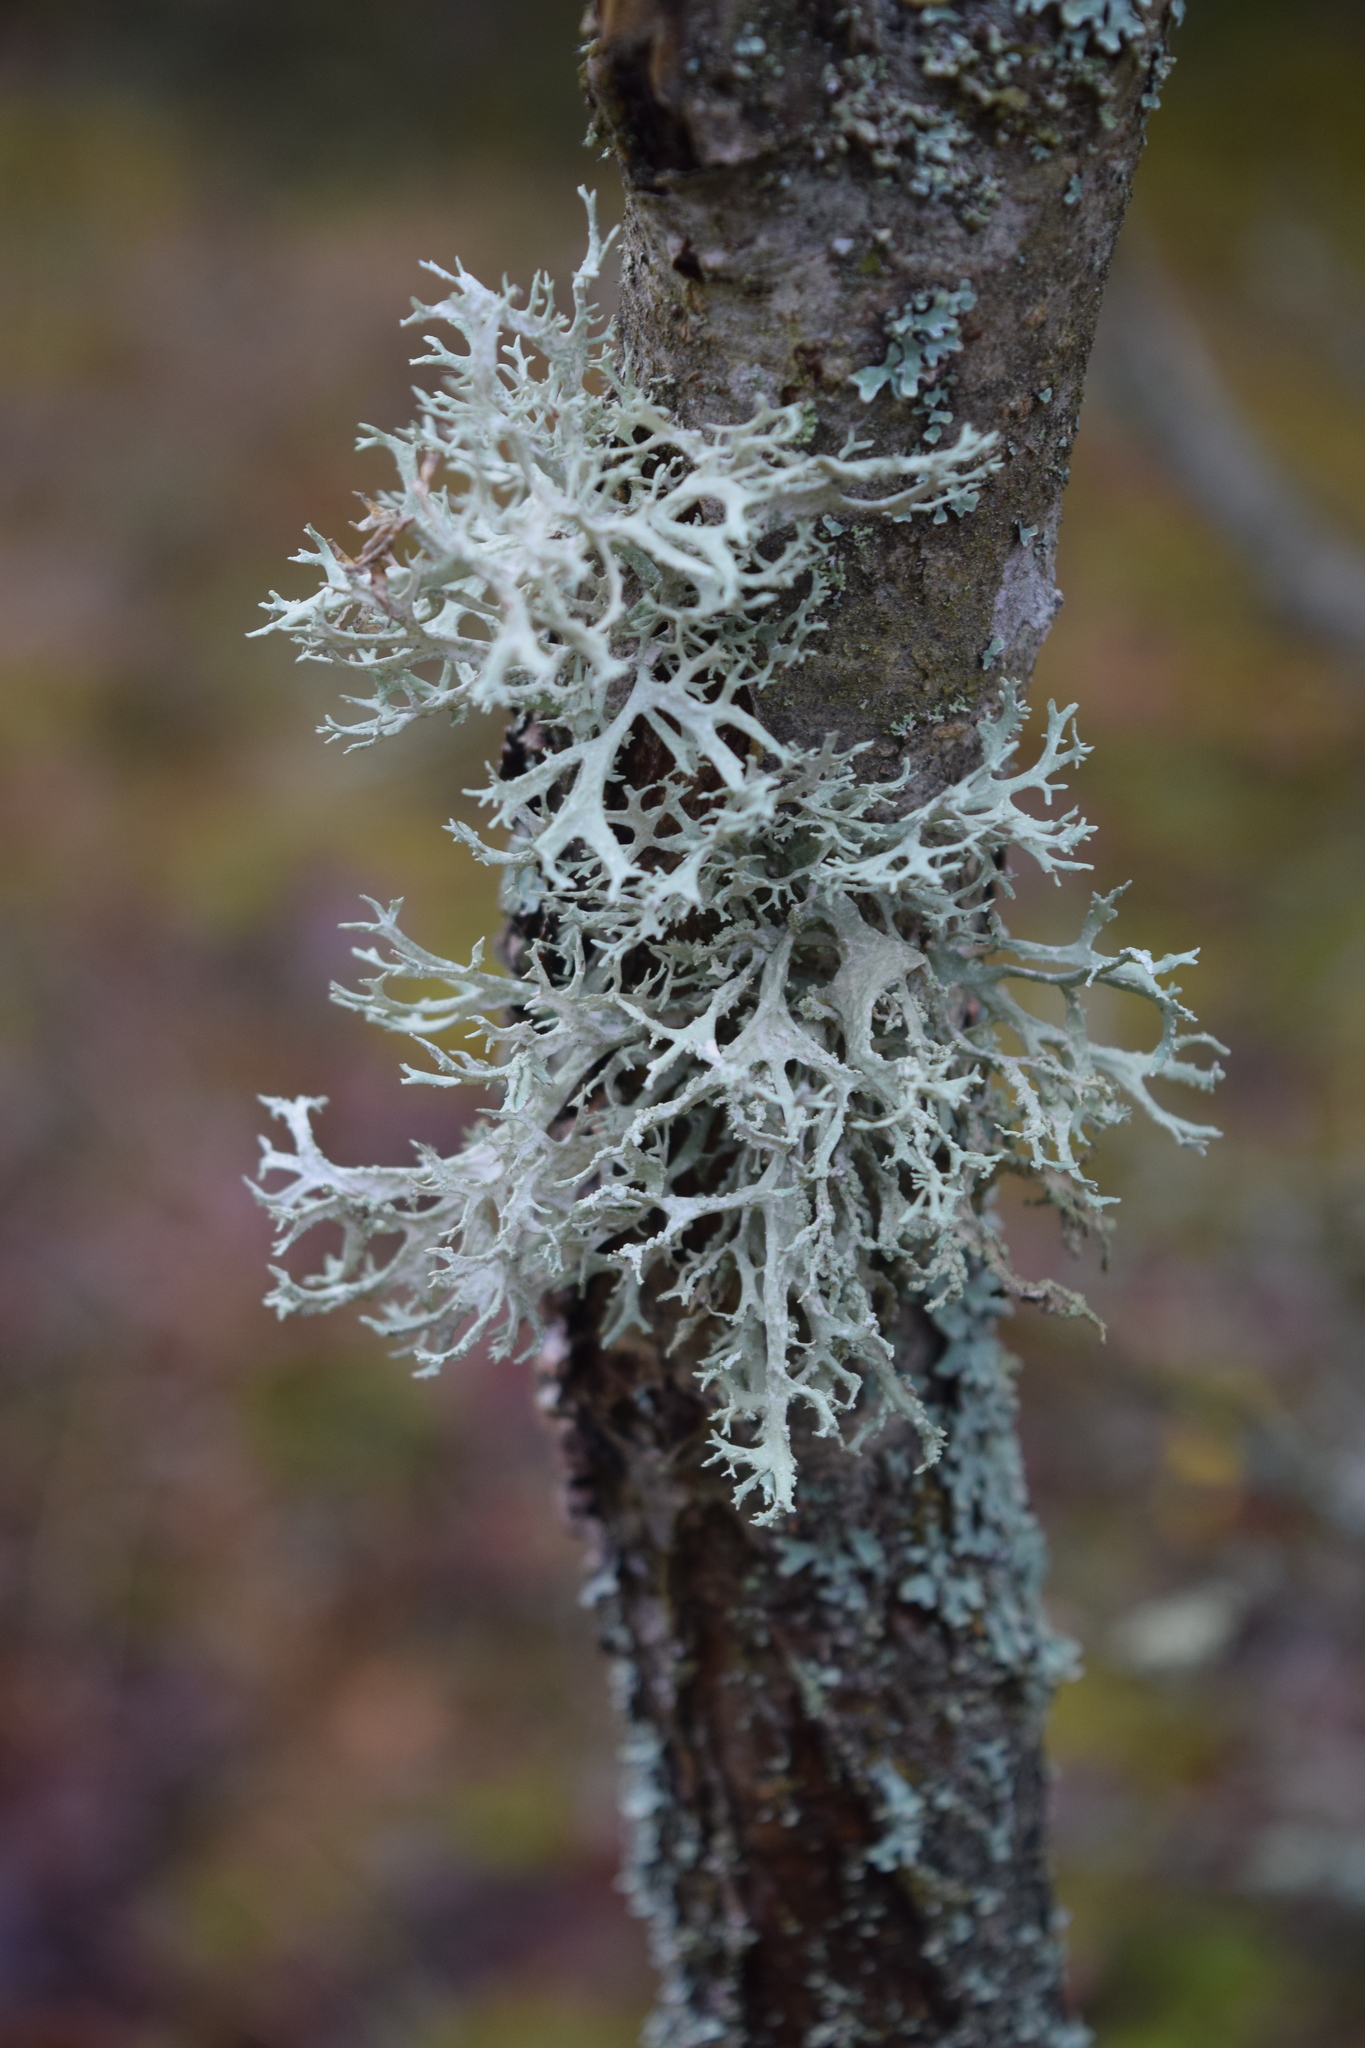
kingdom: Fungi
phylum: Ascomycota
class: Lecanoromycetes
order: Lecanorales
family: Parmeliaceae
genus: Evernia
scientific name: Evernia prunastri
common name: Oak moss
